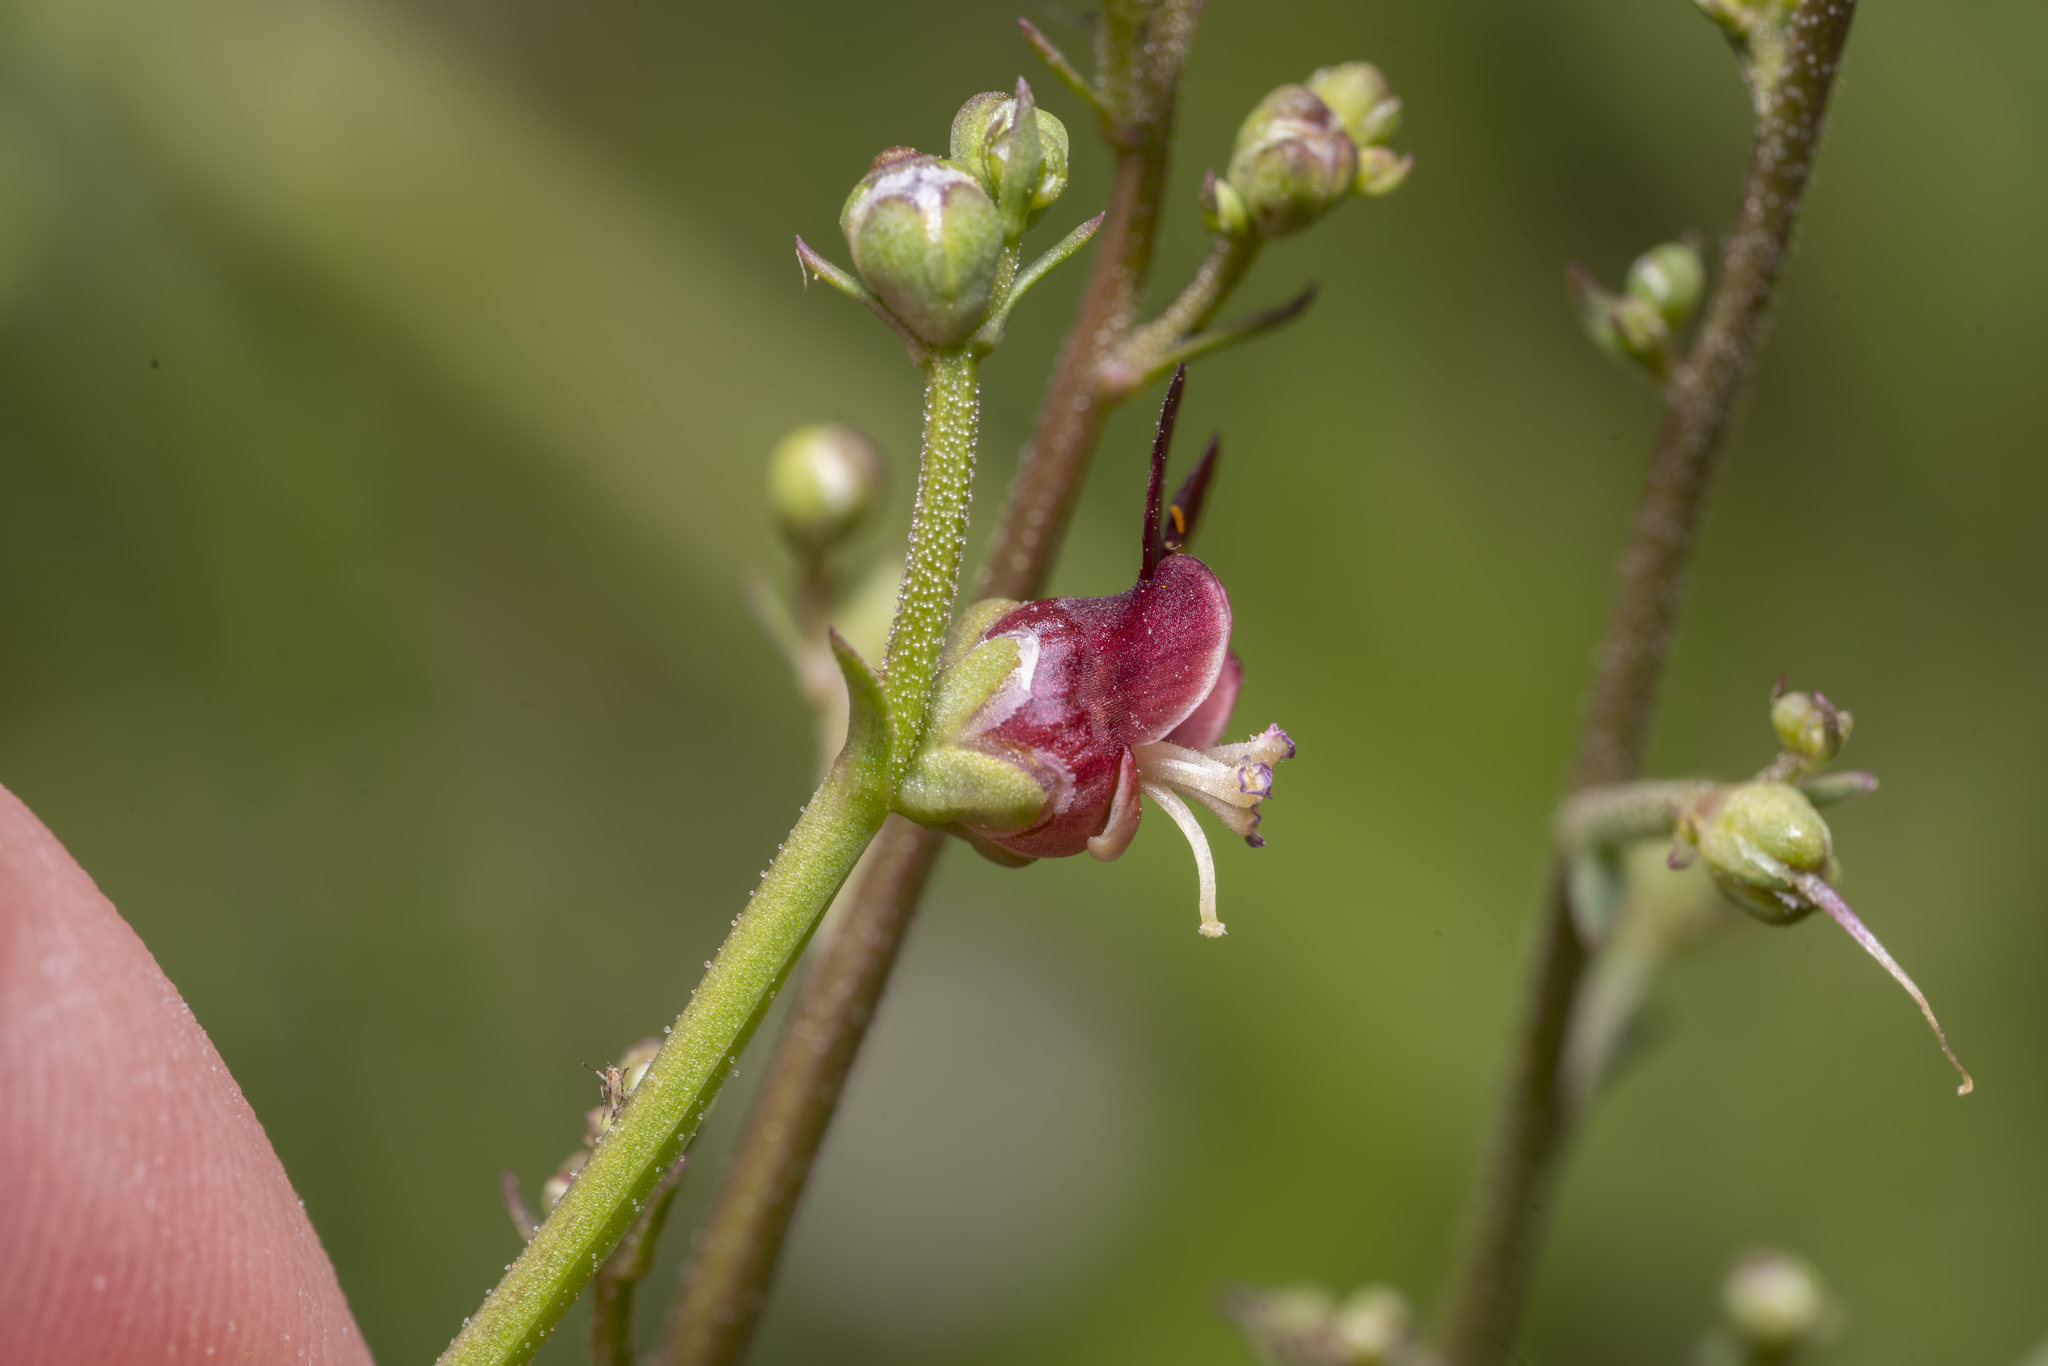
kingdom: Plantae
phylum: Tracheophyta
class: Magnoliopsida
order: Lamiales
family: Scrophulariaceae
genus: Scrophularia
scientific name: Scrophularia lucida
